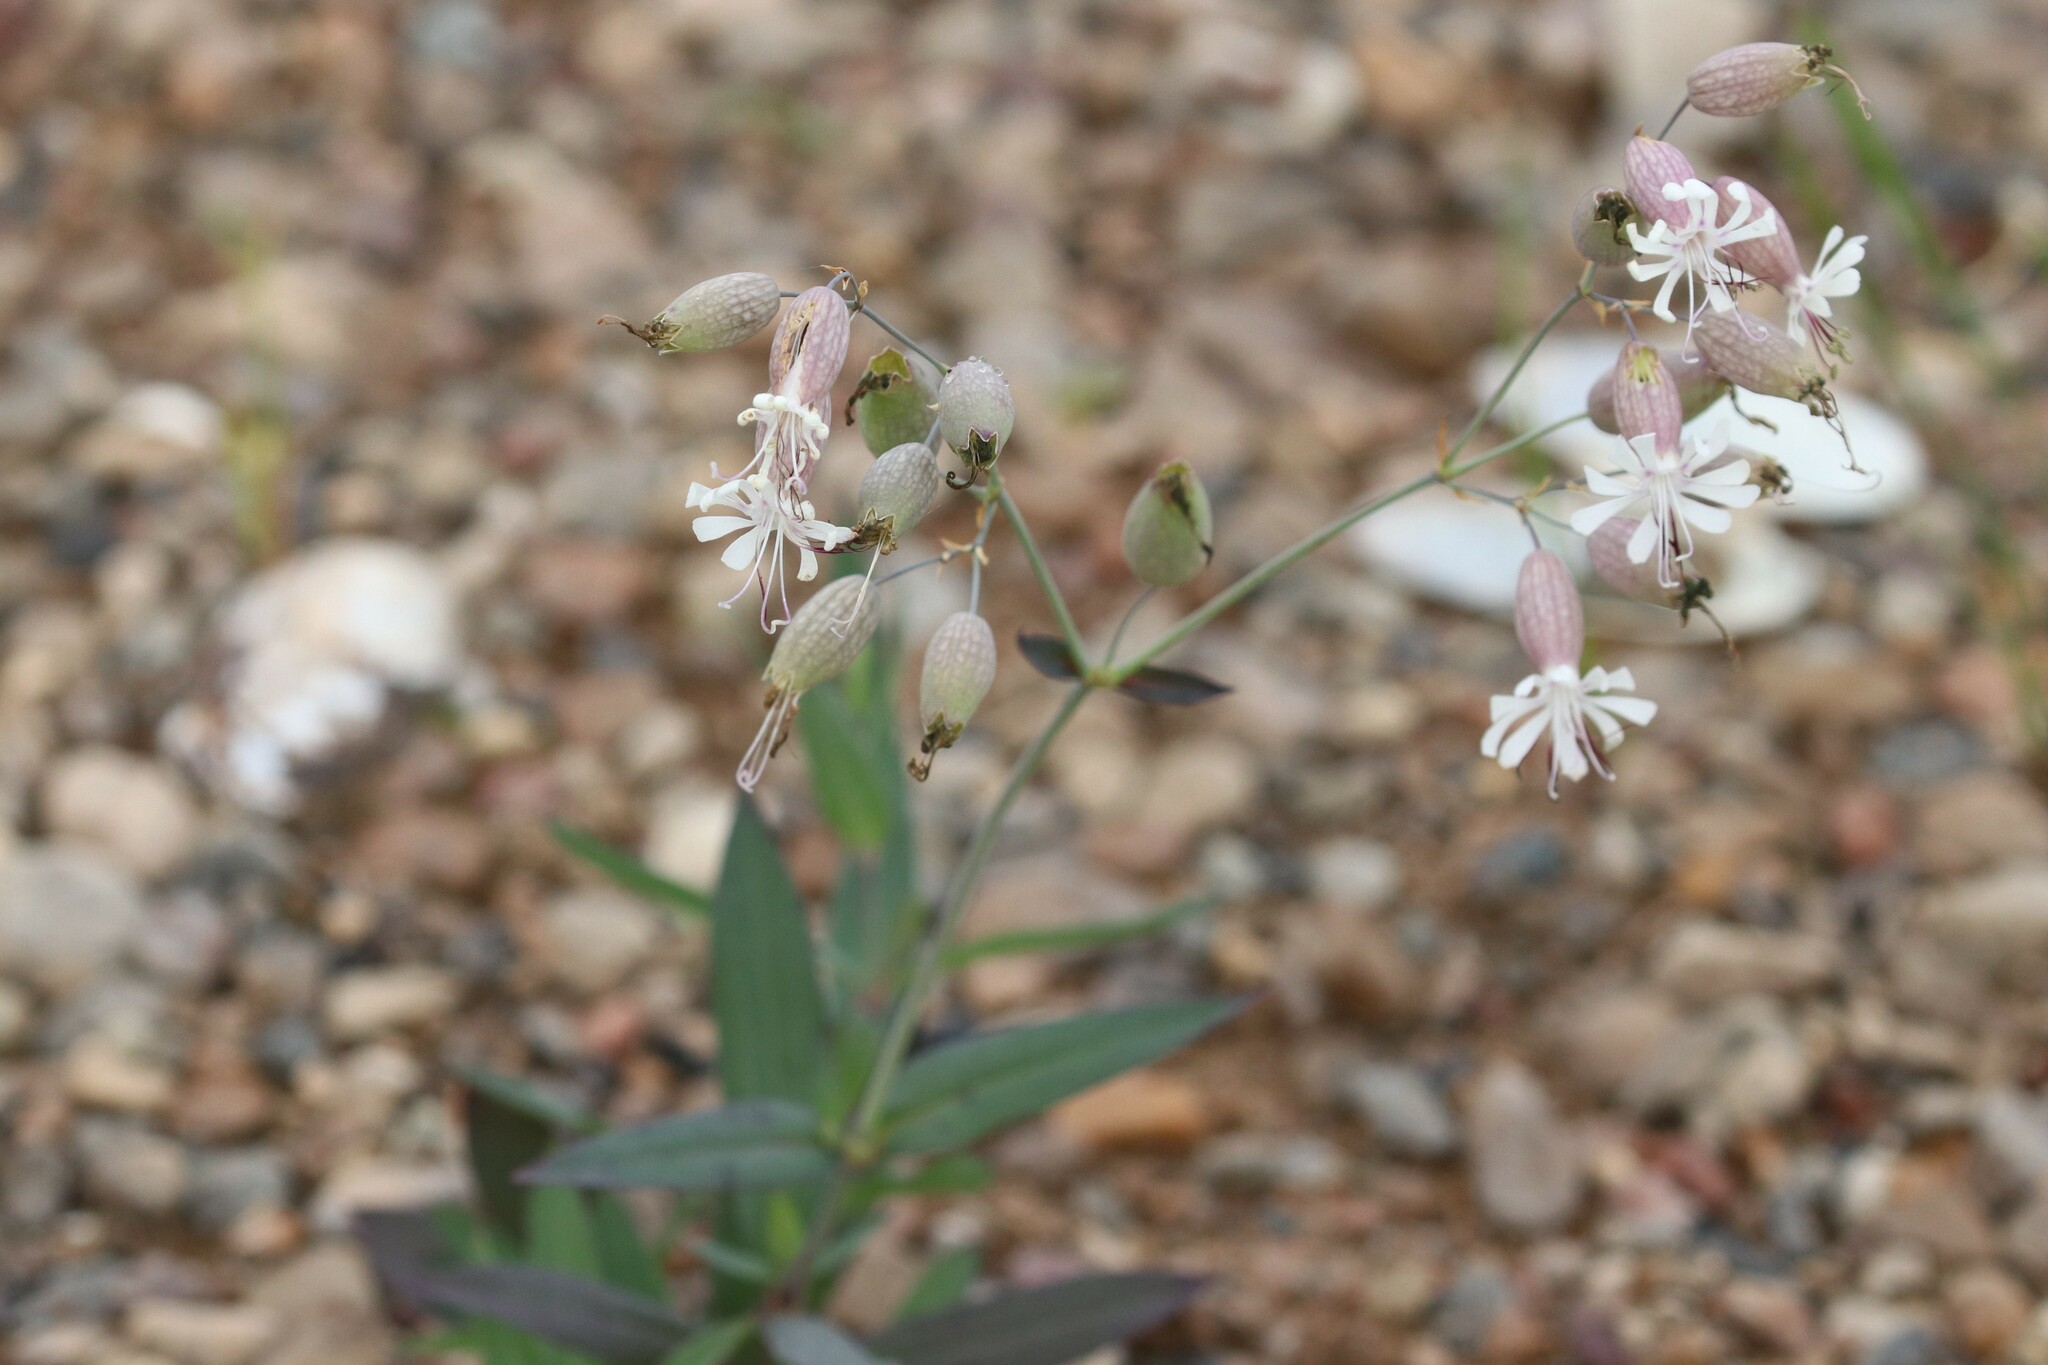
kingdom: Plantae
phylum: Tracheophyta
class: Magnoliopsida
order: Caryophyllales
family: Caryophyllaceae
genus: Silene
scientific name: Silene vulgaris
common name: Bladder campion
